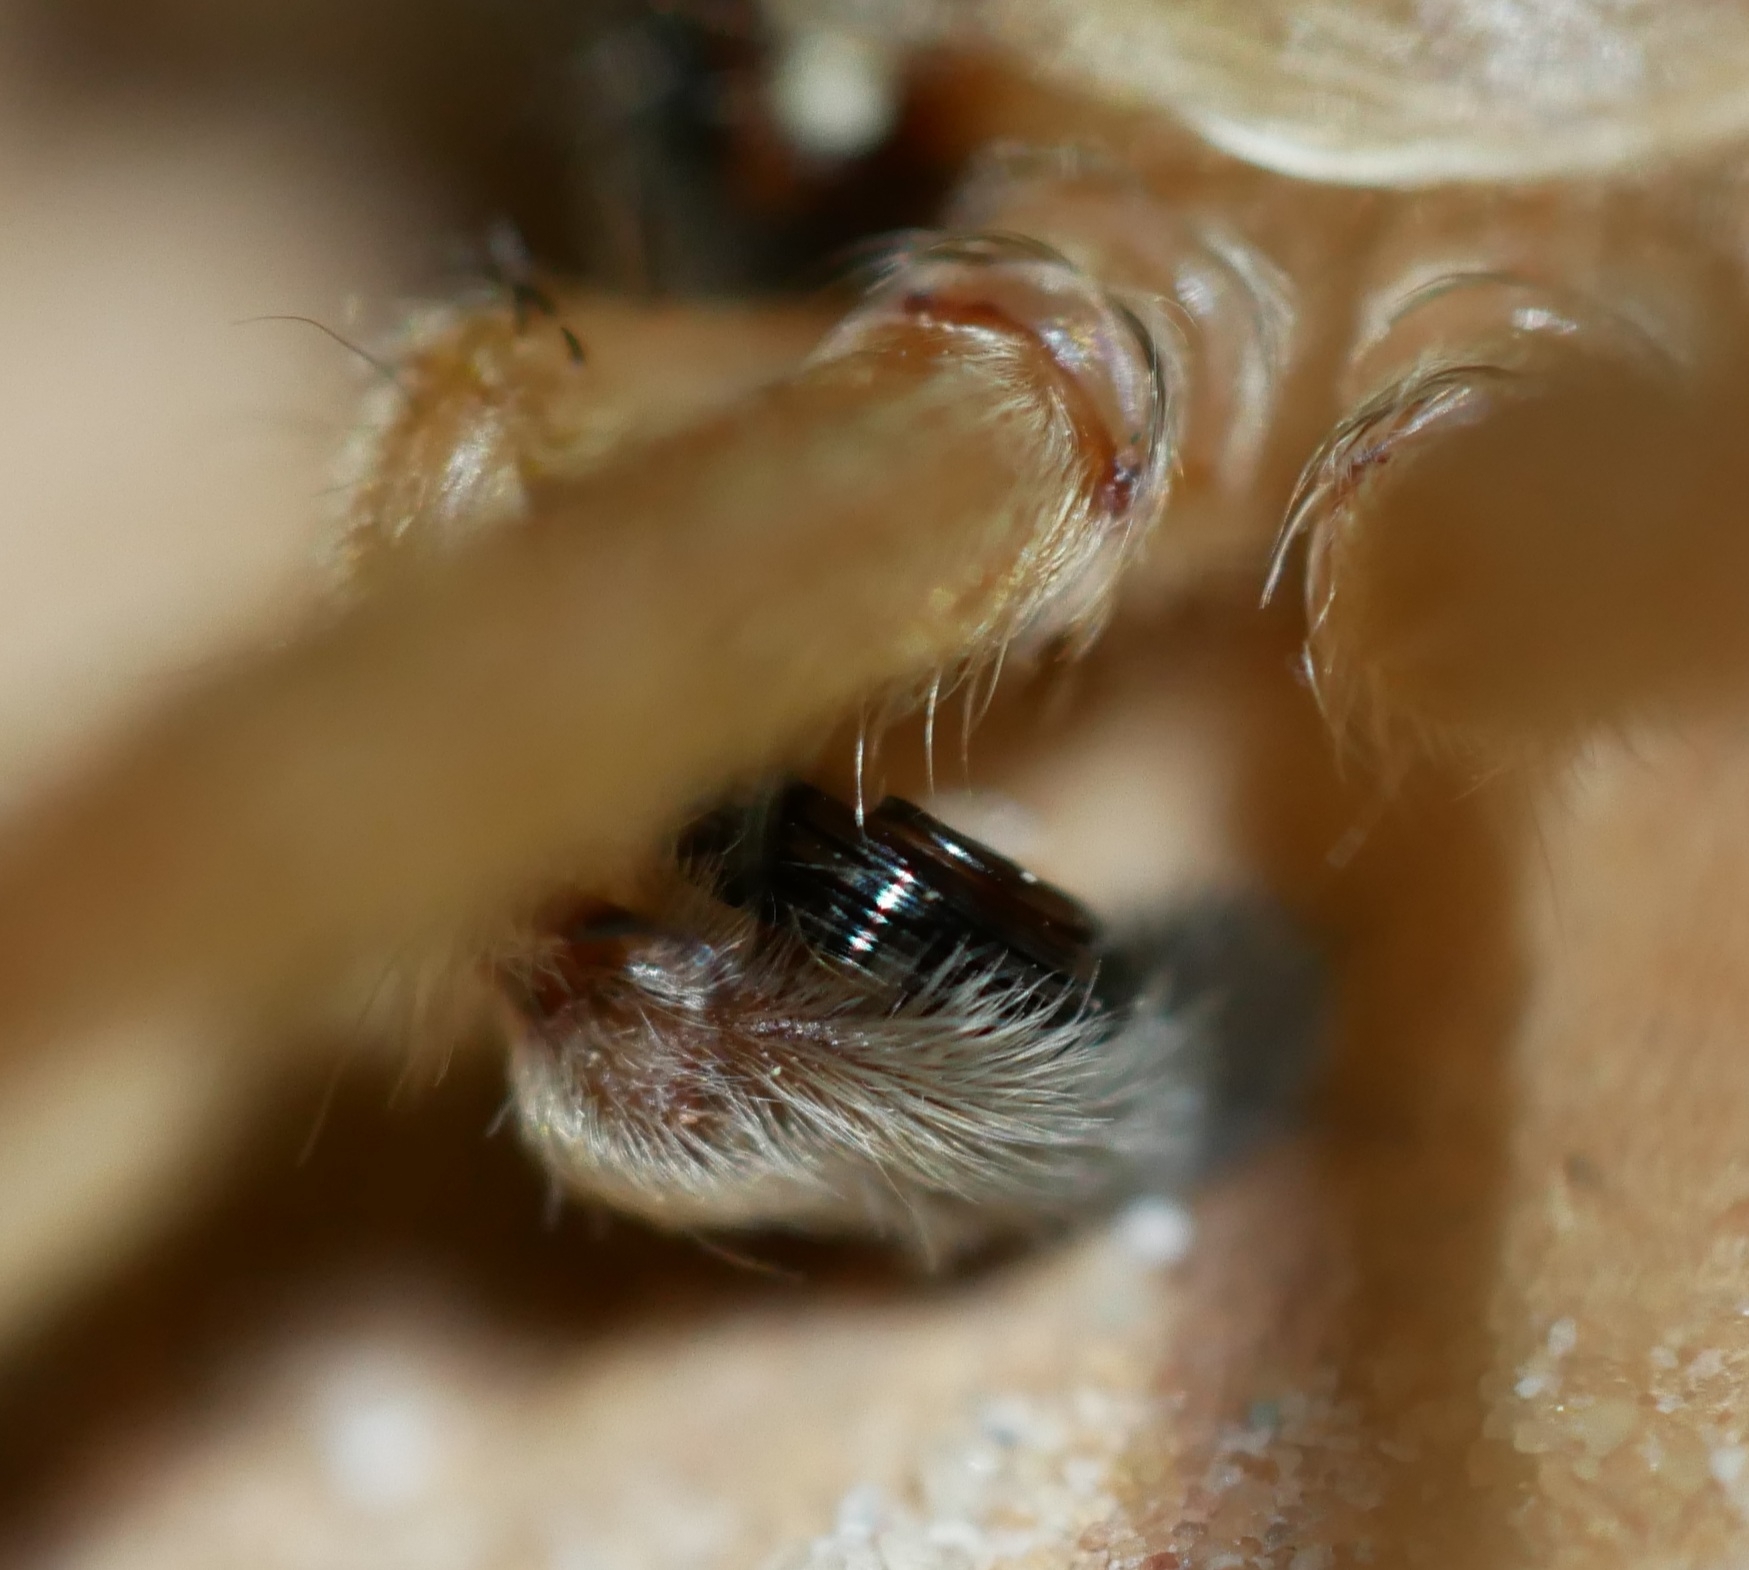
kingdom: Animalia
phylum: Arthropoda
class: Arachnida
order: Araneae
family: Sparassidae
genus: Olios
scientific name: Olios giganteus
